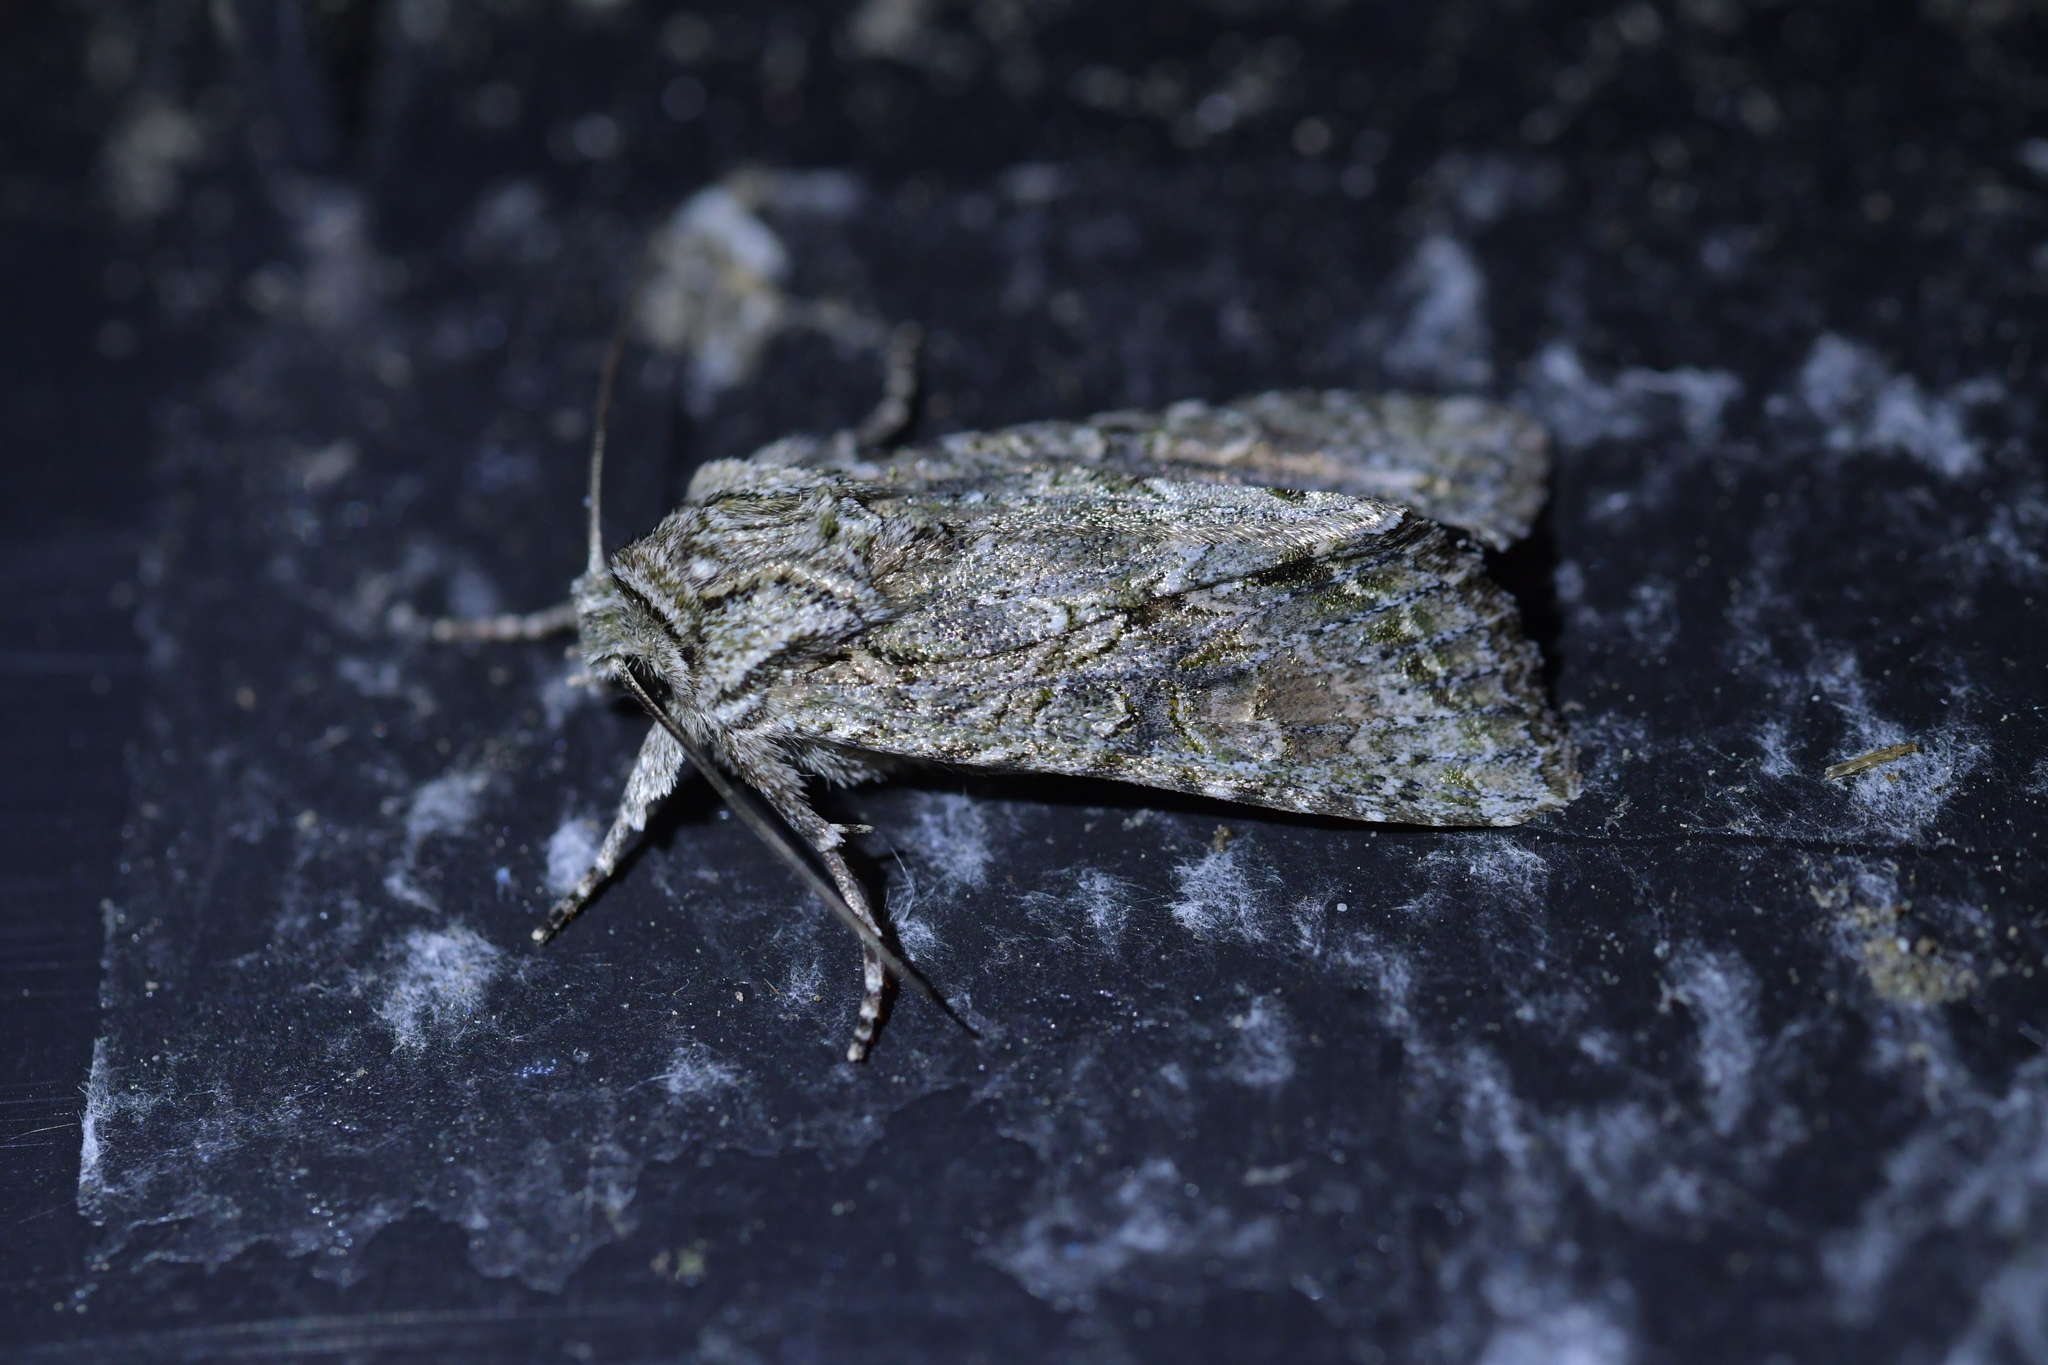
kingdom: Animalia
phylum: Arthropoda
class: Insecta
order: Lepidoptera
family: Noctuidae
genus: Ichneutica
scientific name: Ichneutica mutans
